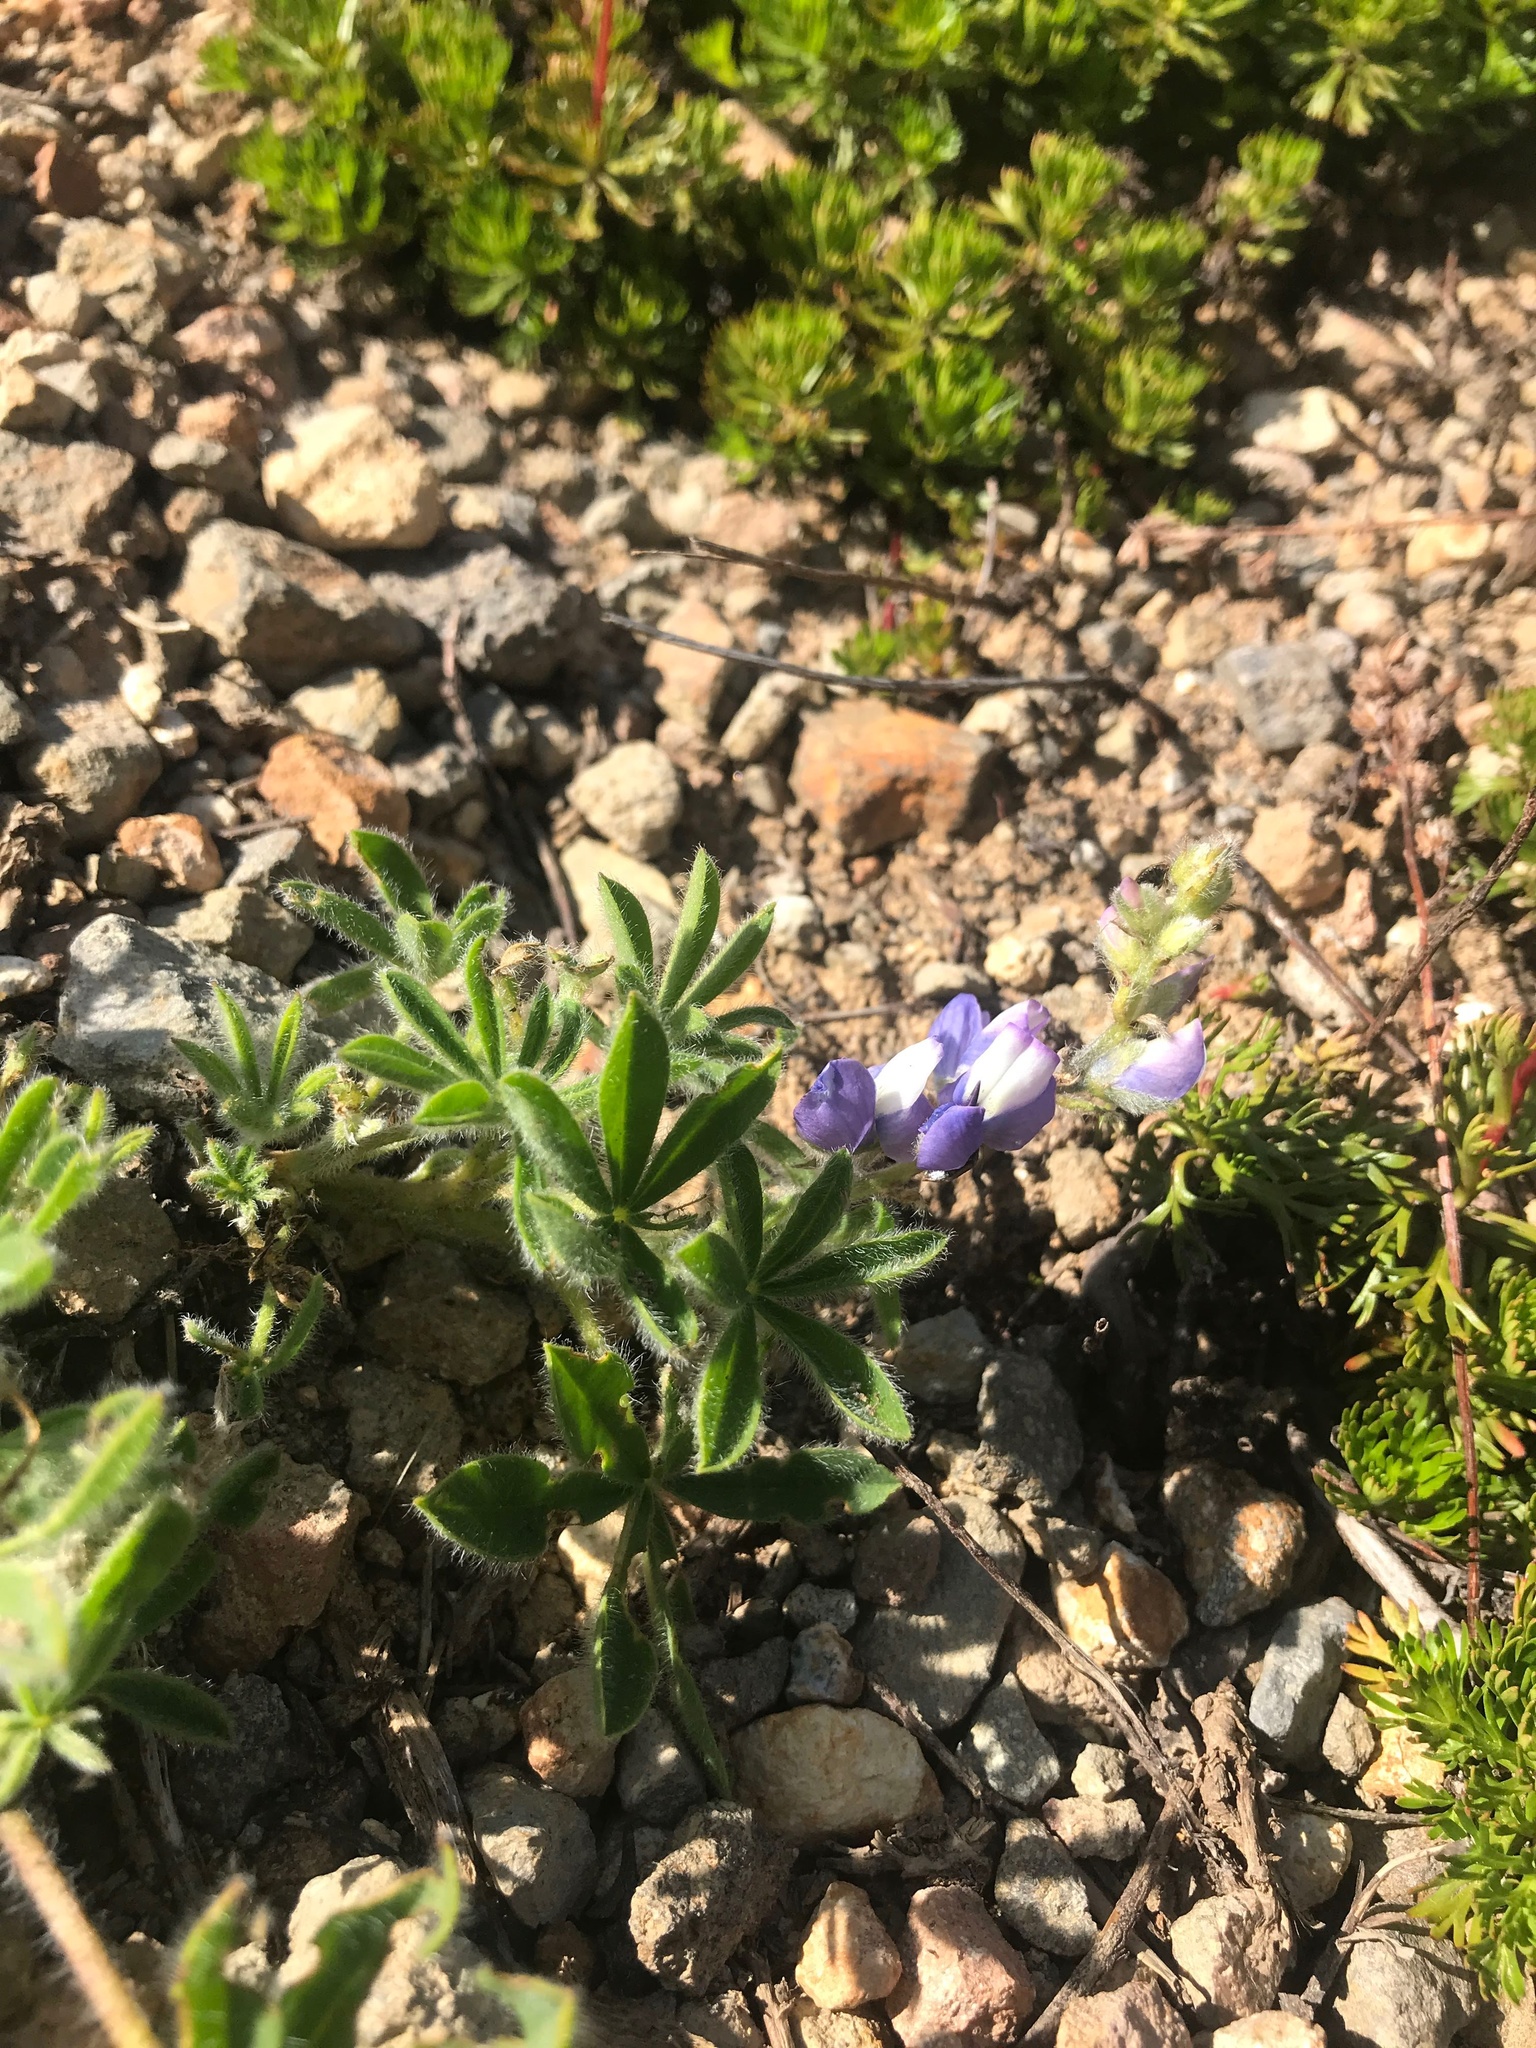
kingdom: Plantae
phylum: Tracheophyta
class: Magnoliopsida
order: Fabales
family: Fabaceae
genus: Lupinus
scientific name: Lupinus lepidus
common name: Prairie lupine
